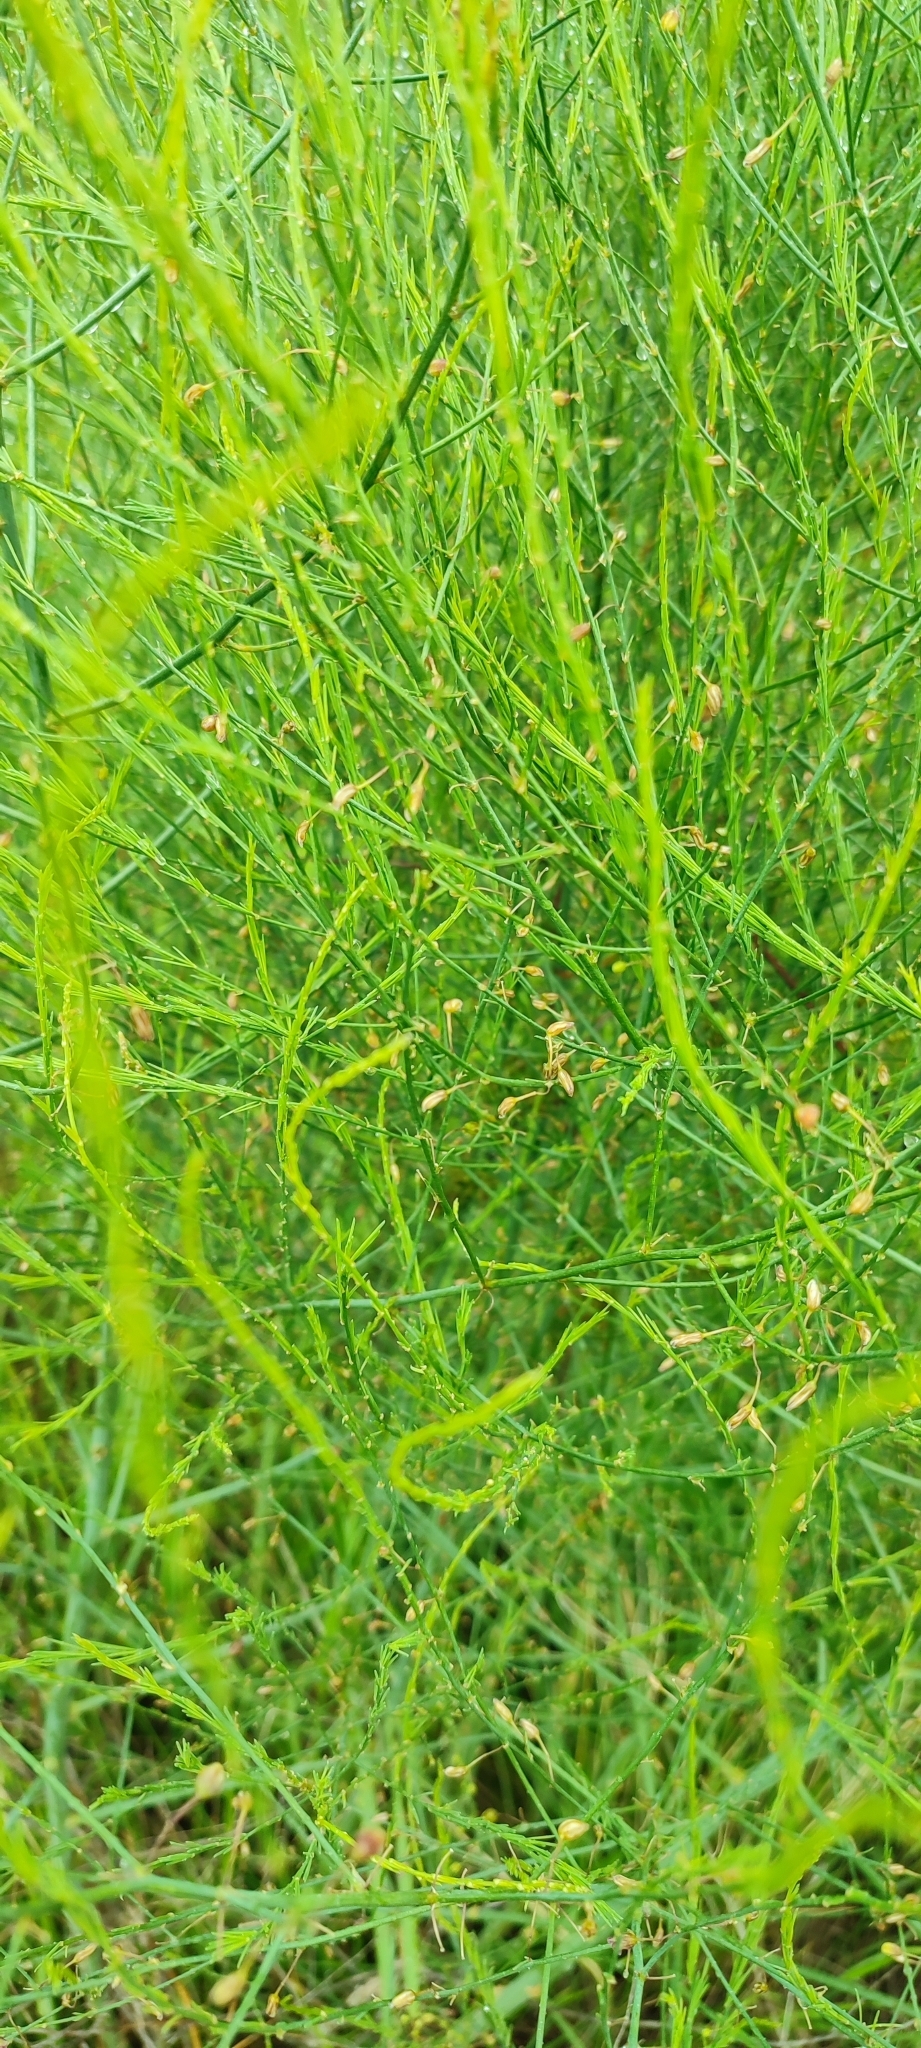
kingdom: Plantae
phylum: Tracheophyta
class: Liliopsida
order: Asparagales
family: Asparagaceae
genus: Asparagus
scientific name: Asparagus officinalis
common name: Garden asparagus
